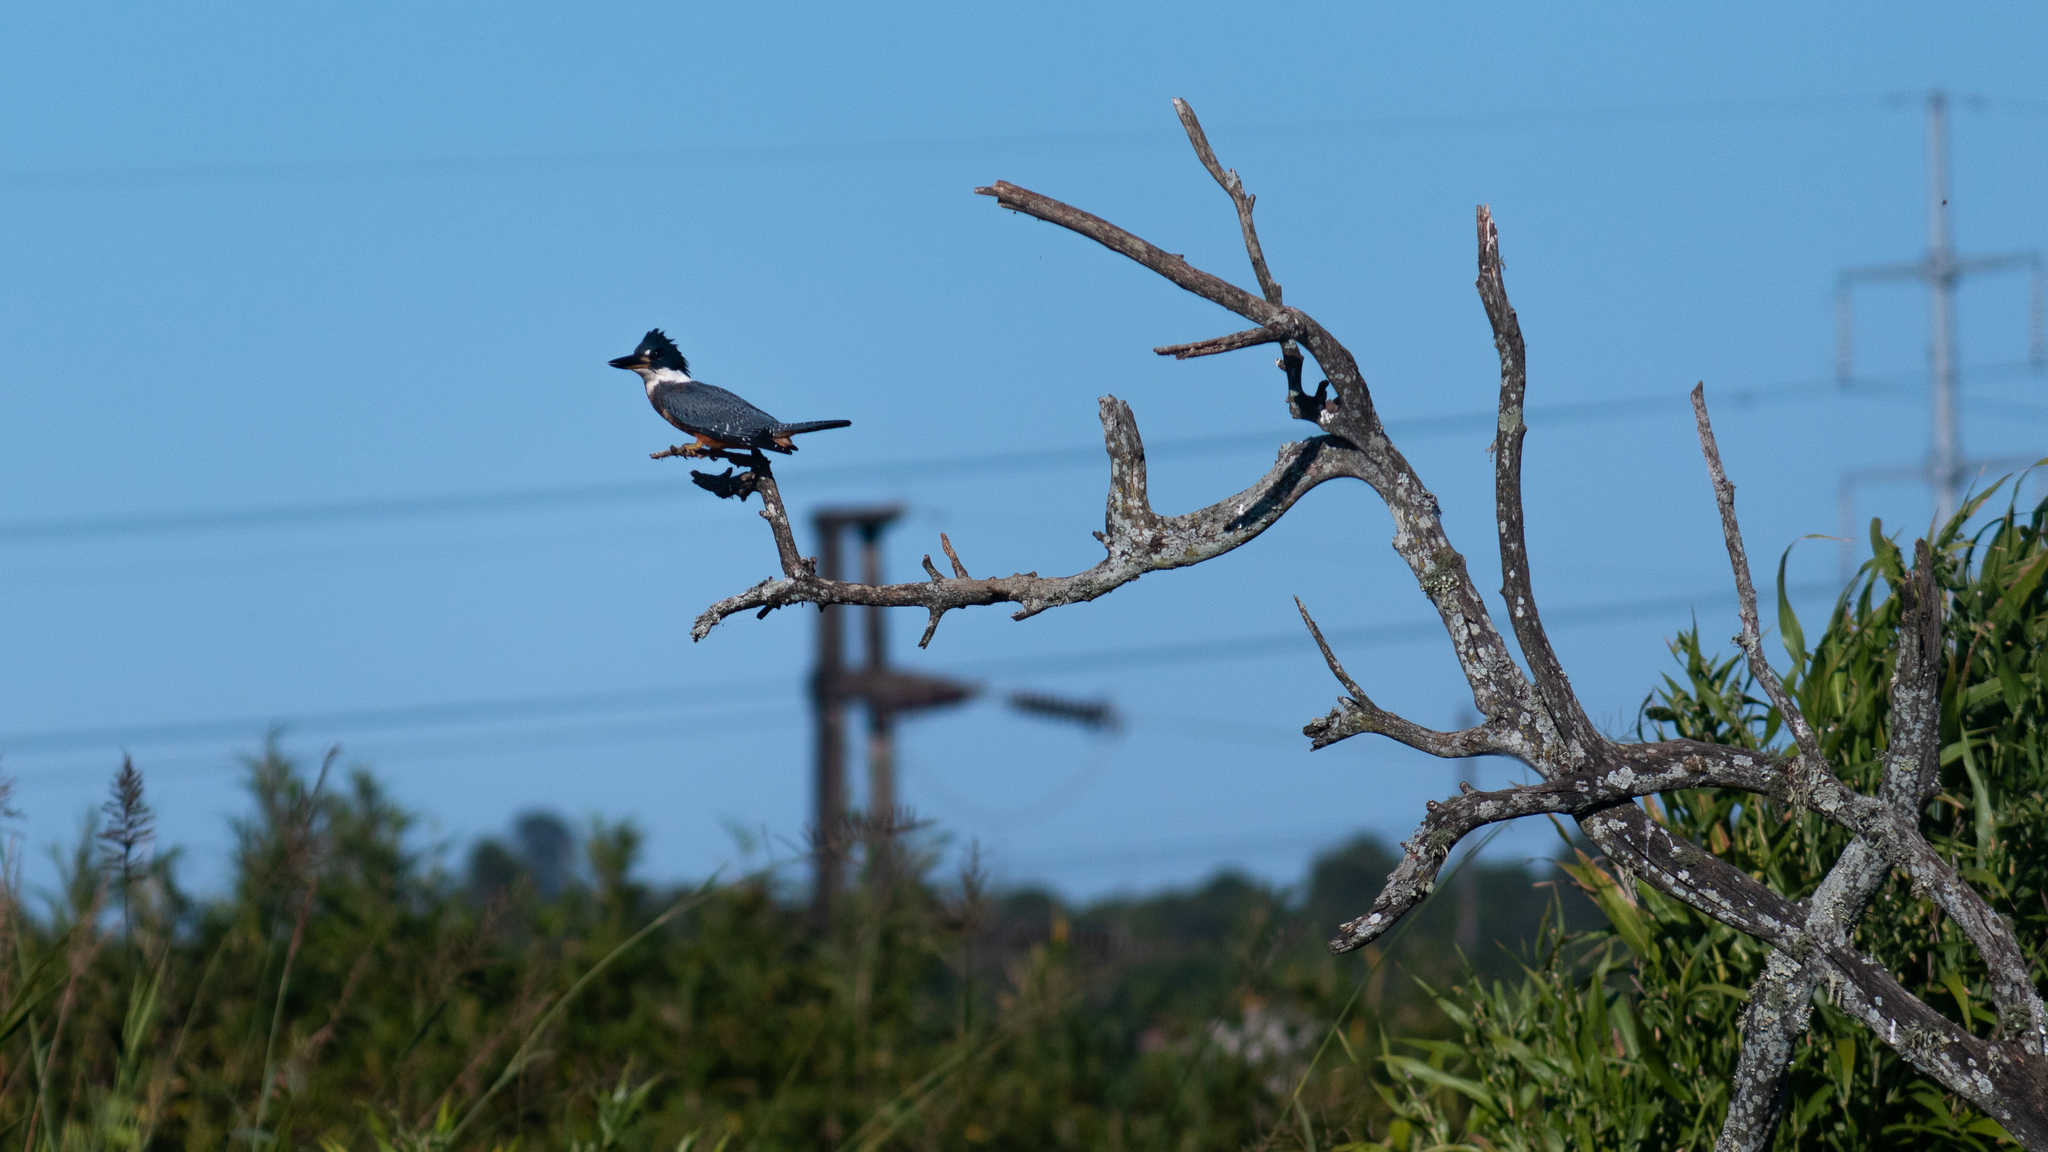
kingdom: Animalia
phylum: Chordata
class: Aves
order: Coraciiformes
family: Alcedinidae
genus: Megaceryle
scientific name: Megaceryle torquata
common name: Ringed kingfisher
